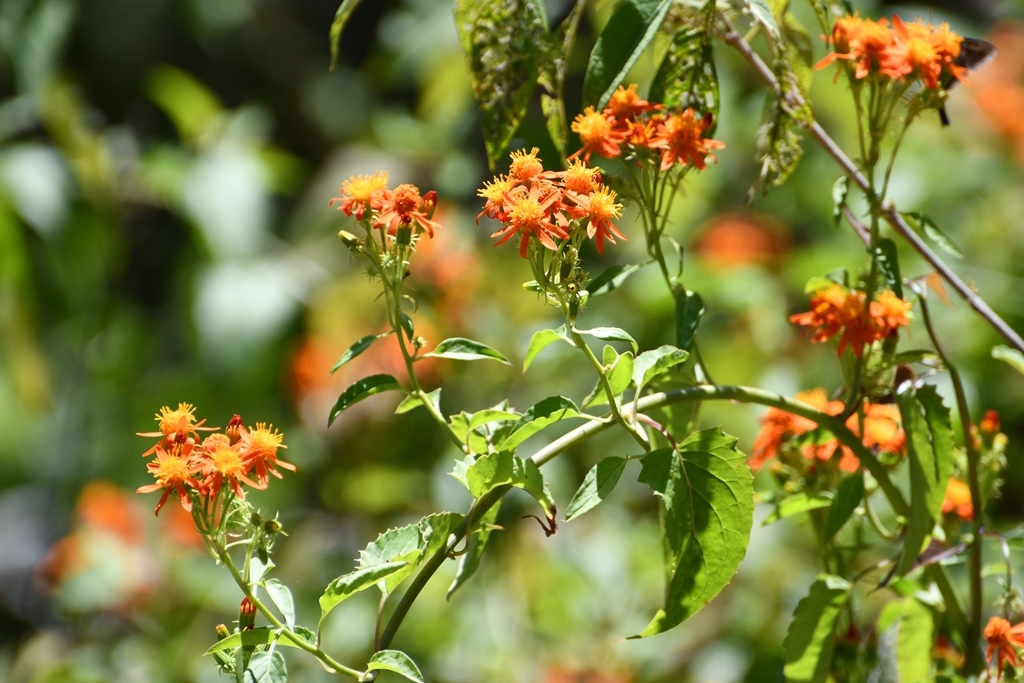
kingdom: Plantae
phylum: Tracheophyta
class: Magnoliopsida
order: Asterales
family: Asteraceae
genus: Pseudogynoxys
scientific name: Pseudogynoxys haenkei
